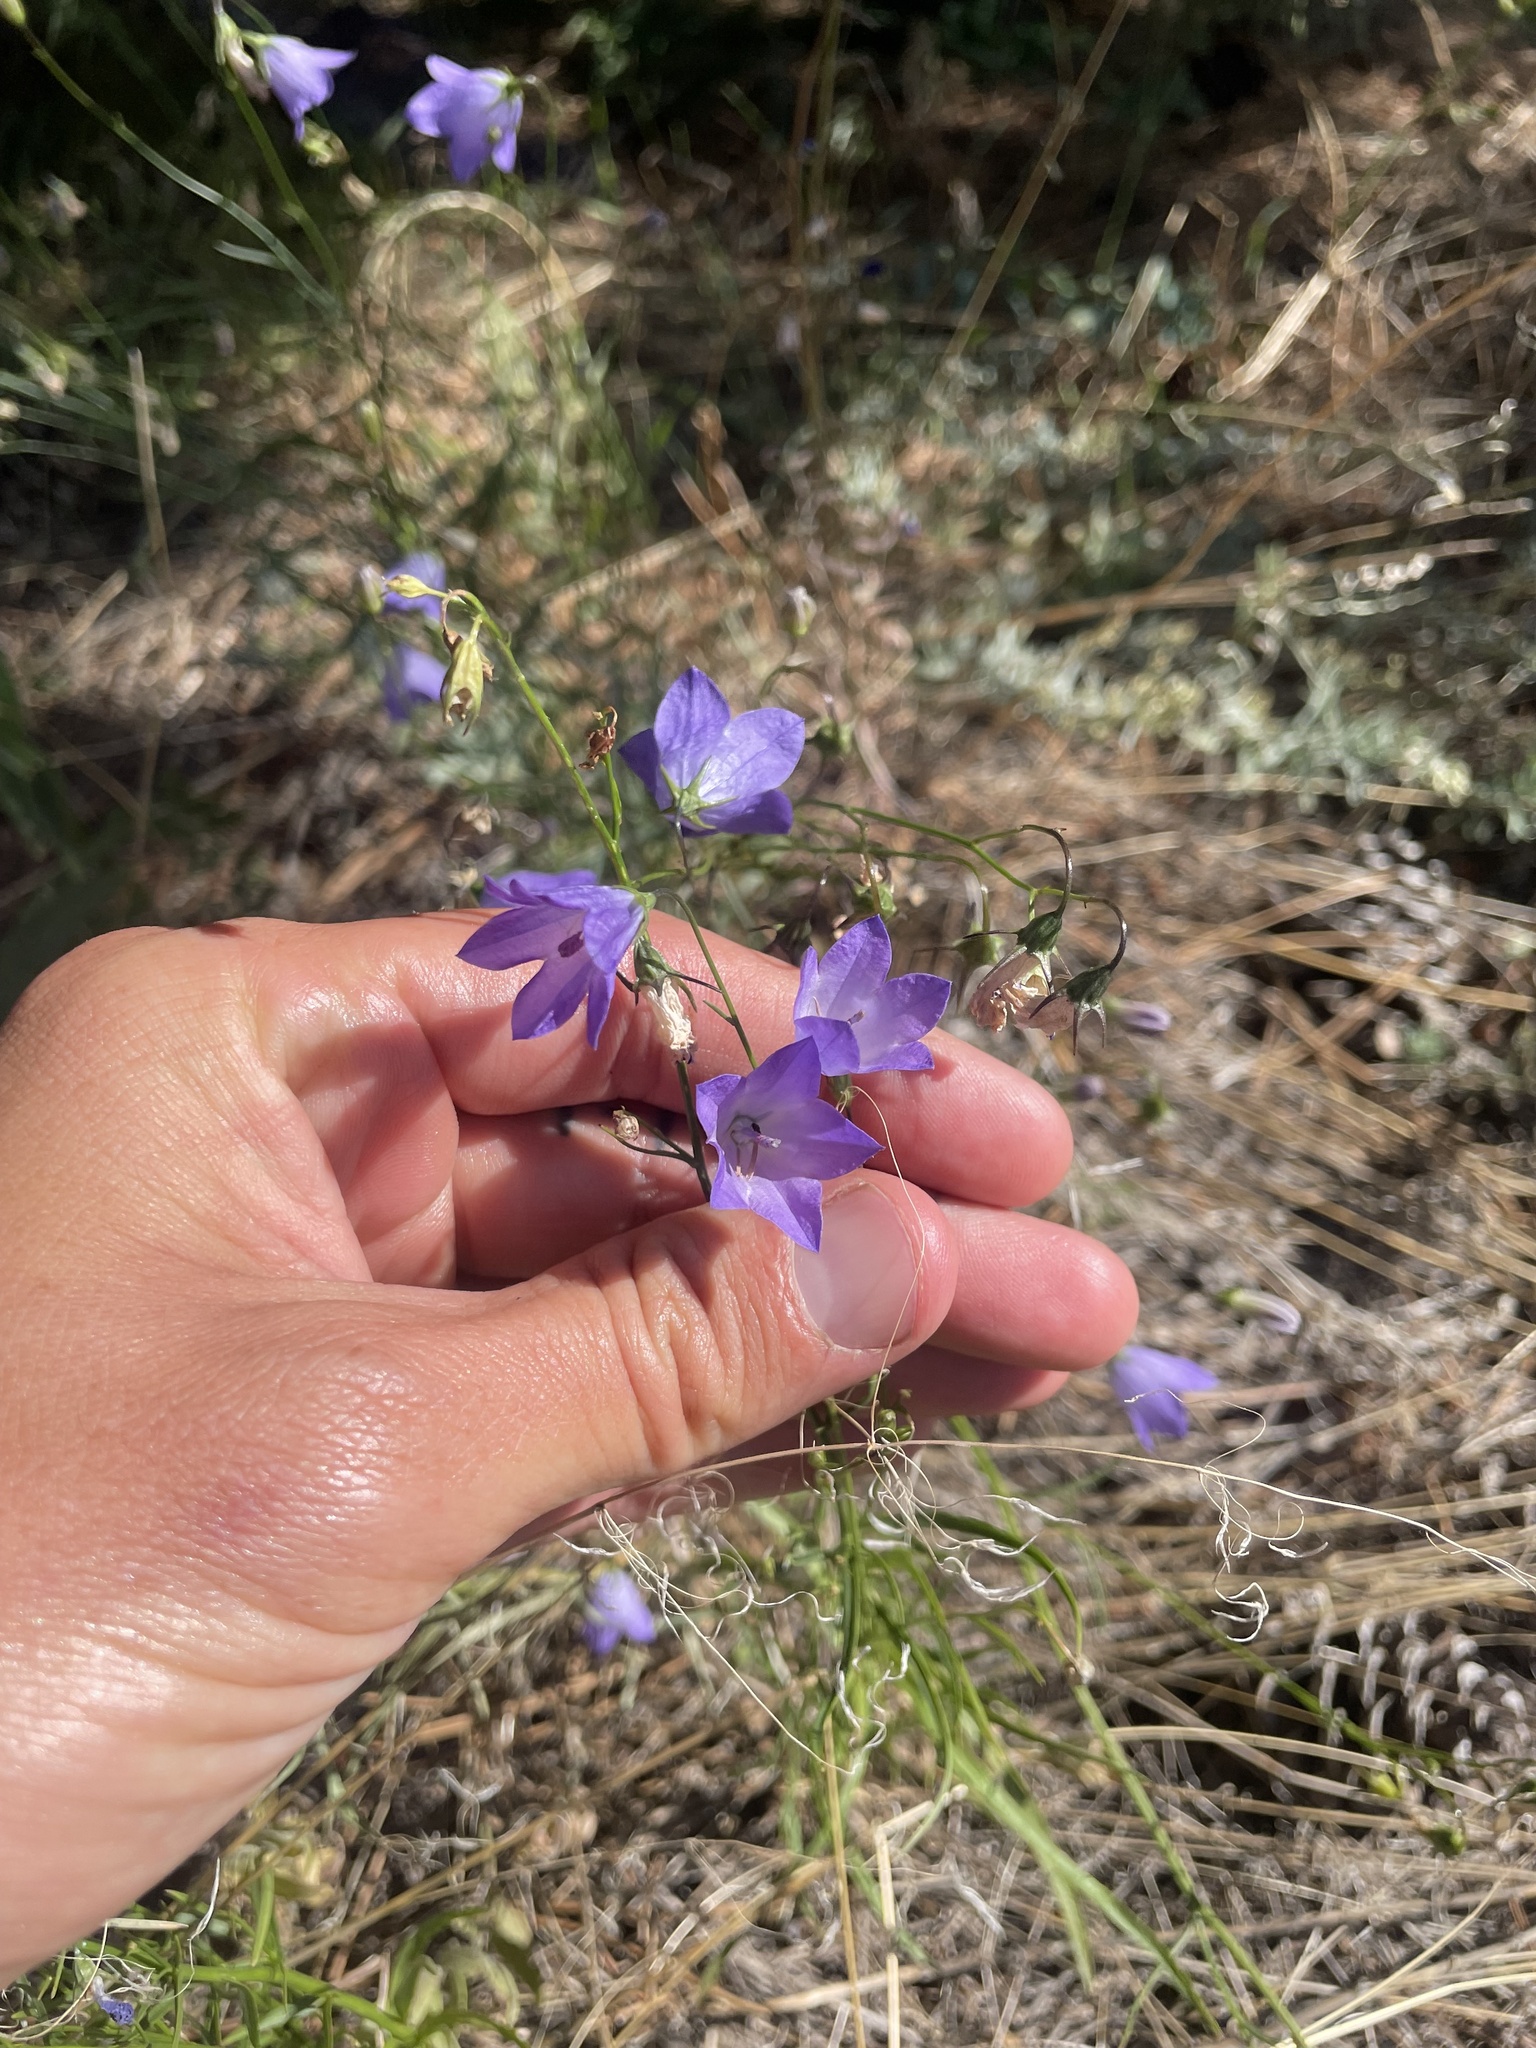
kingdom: Plantae
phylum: Tracheophyta
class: Magnoliopsida
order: Asterales
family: Campanulaceae
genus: Campanula
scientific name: Campanula petiolata
